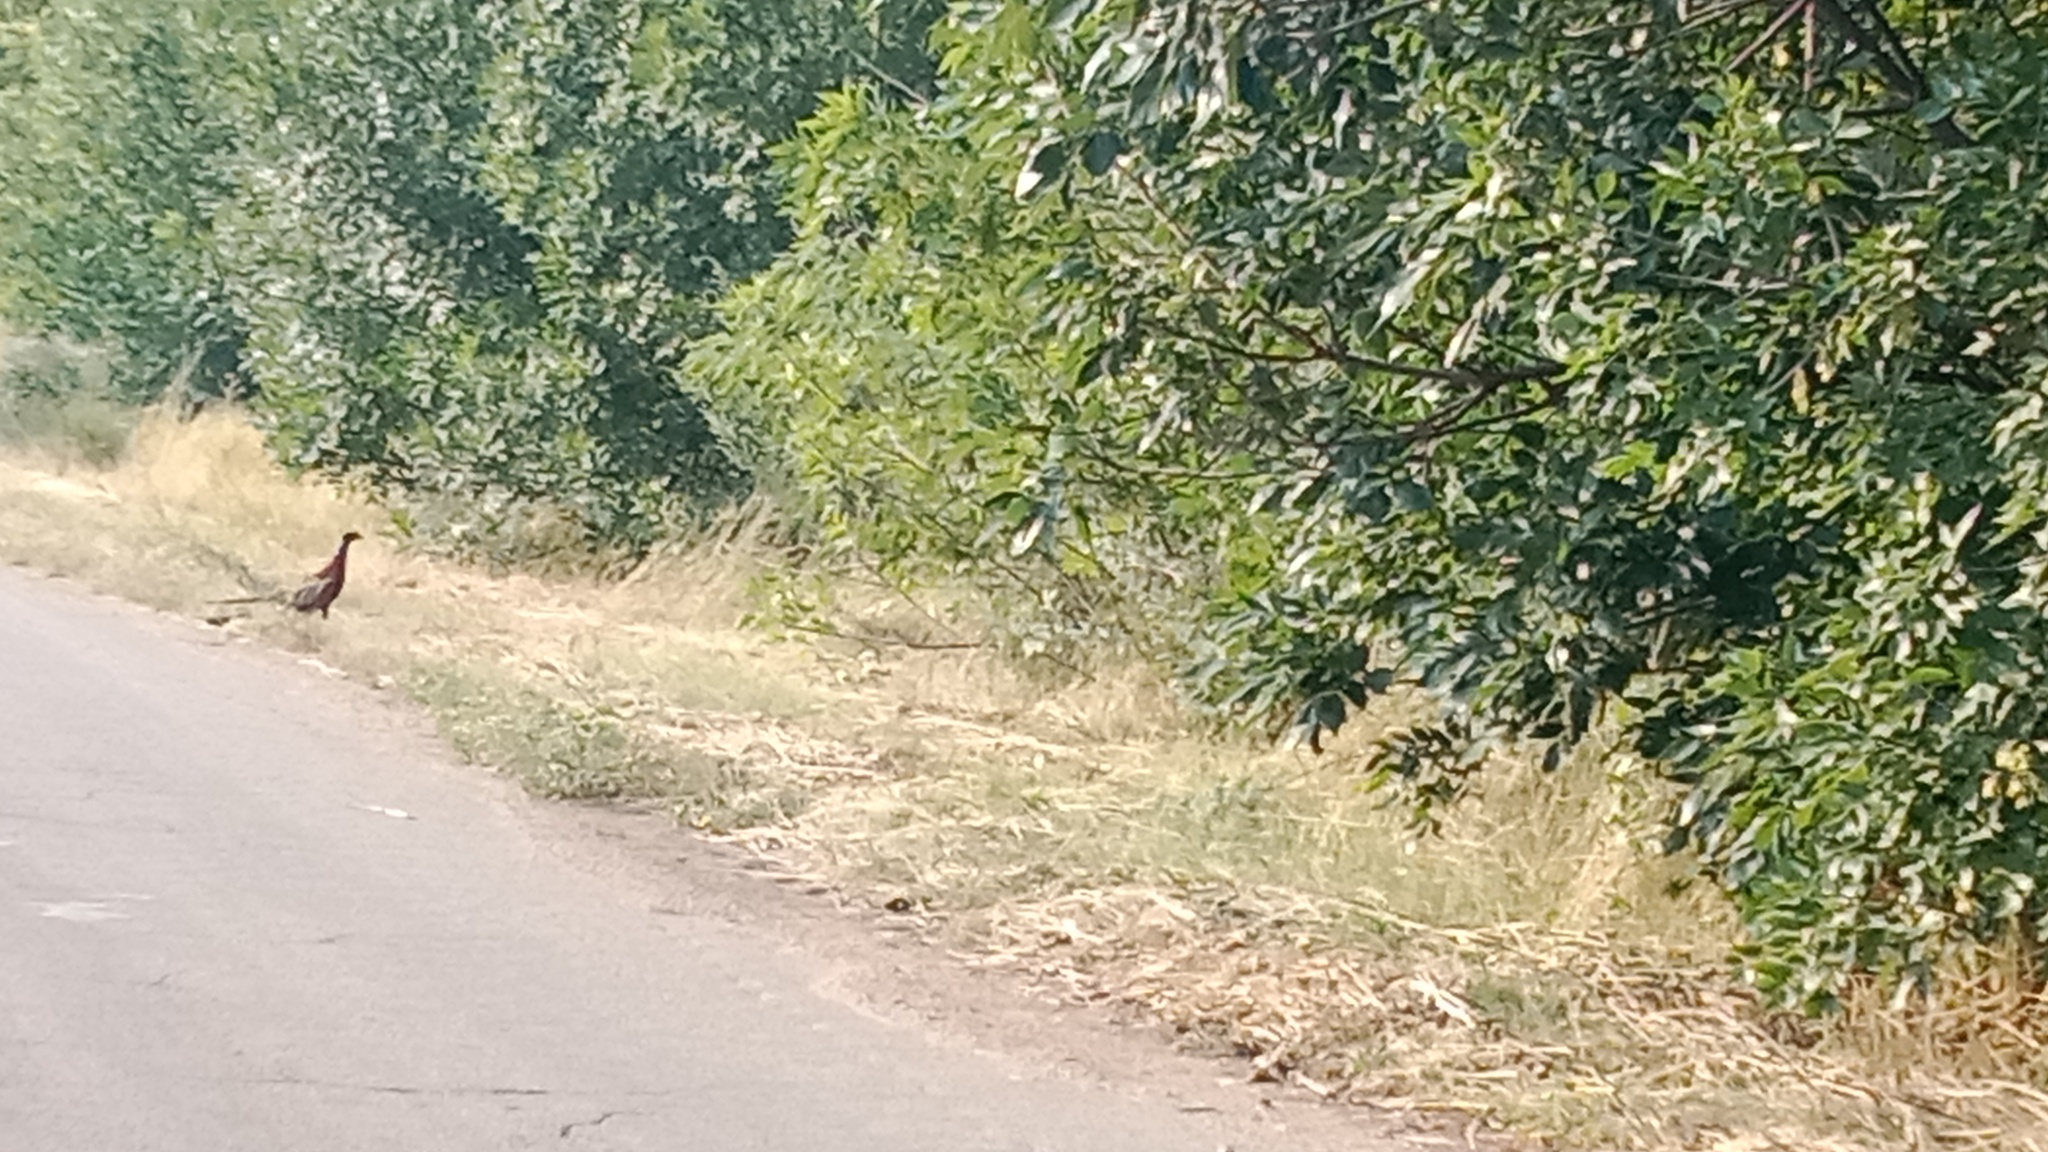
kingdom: Animalia
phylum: Chordata
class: Aves
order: Galliformes
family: Phasianidae
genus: Phasianus
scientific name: Phasianus colchicus
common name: Common pheasant
